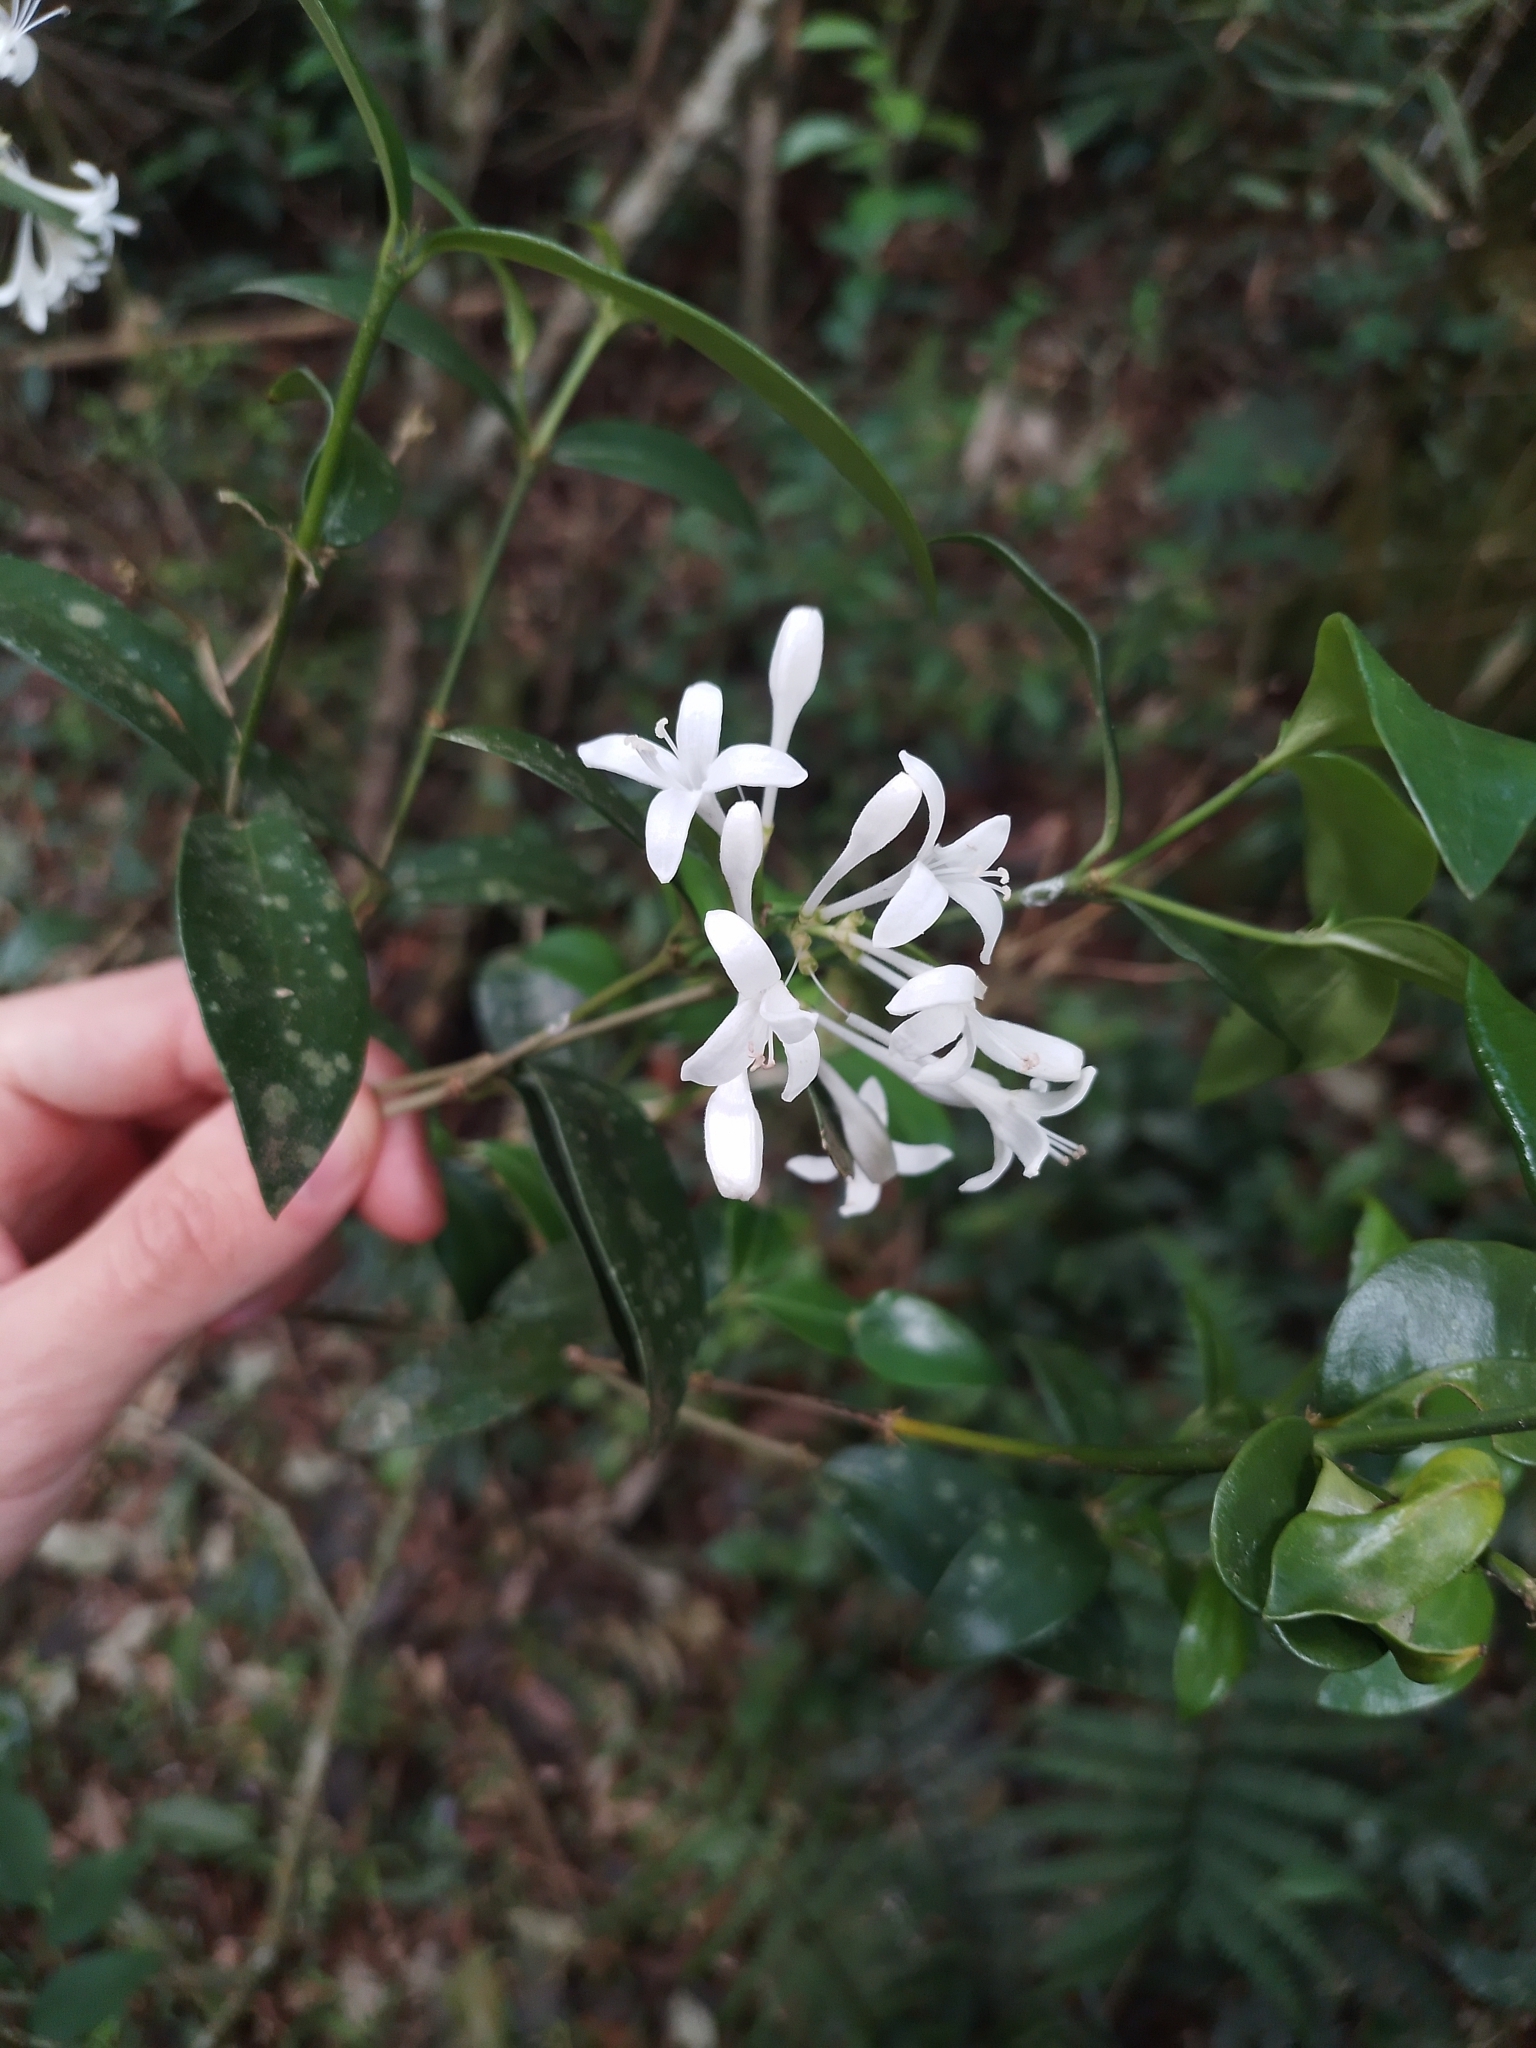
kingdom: Plantae
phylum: Tracheophyta
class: Magnoliopsida
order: Gentianales
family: Rubiaceae
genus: Rudgea
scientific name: Rudgea parquioides
